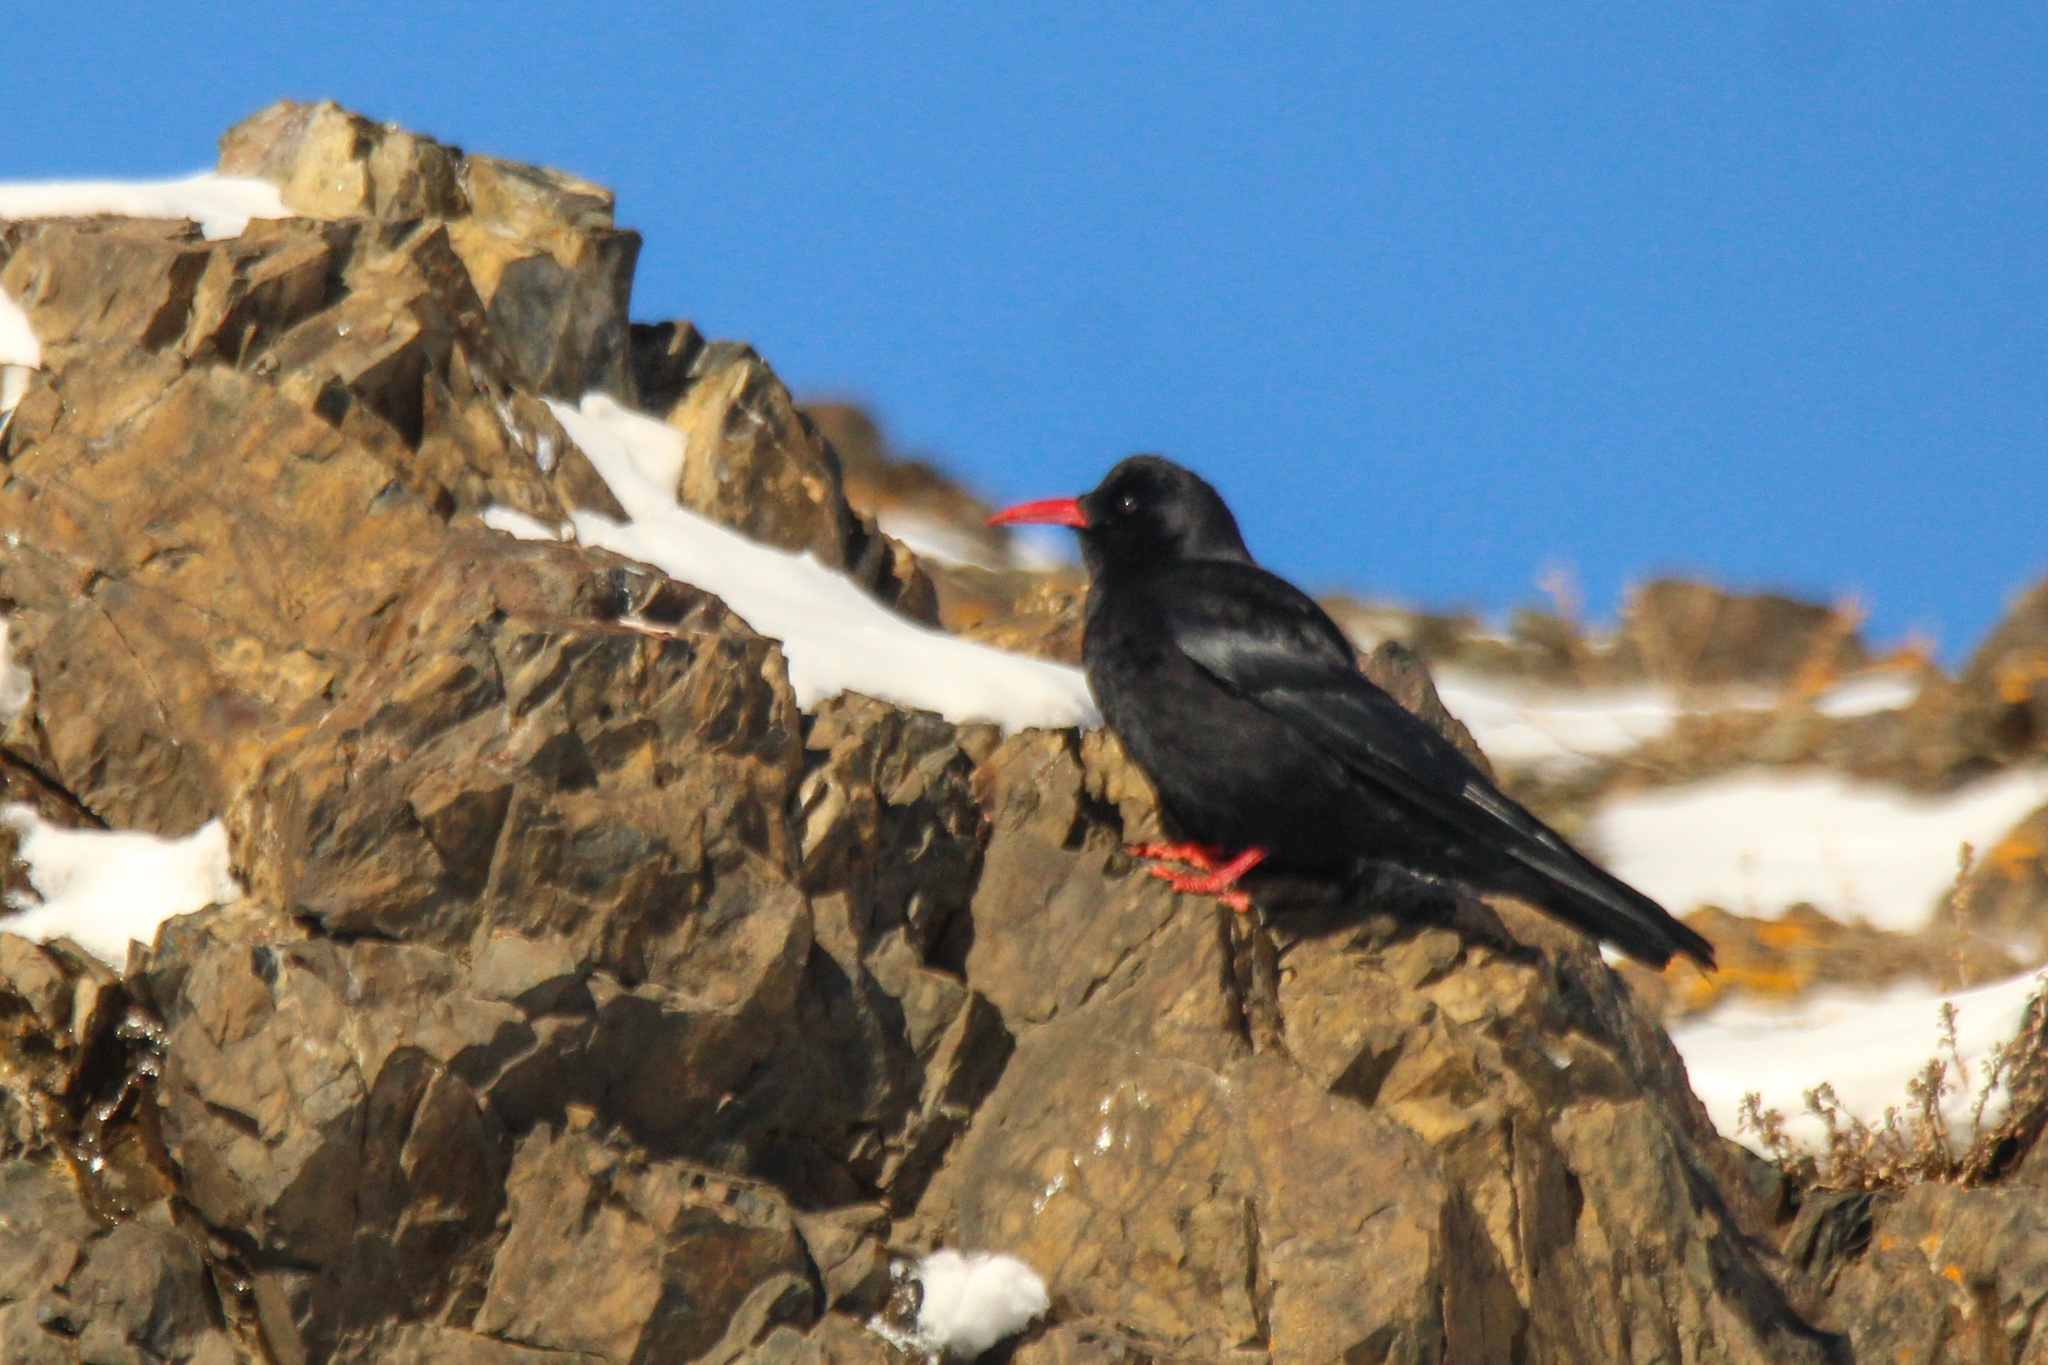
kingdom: Animalia
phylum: Chordata
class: Aves
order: Passeriformes
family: Corvidae
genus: Pyrrhocorax
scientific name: Pyrrhocorax pyrrhocorax
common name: Red-billed chough
